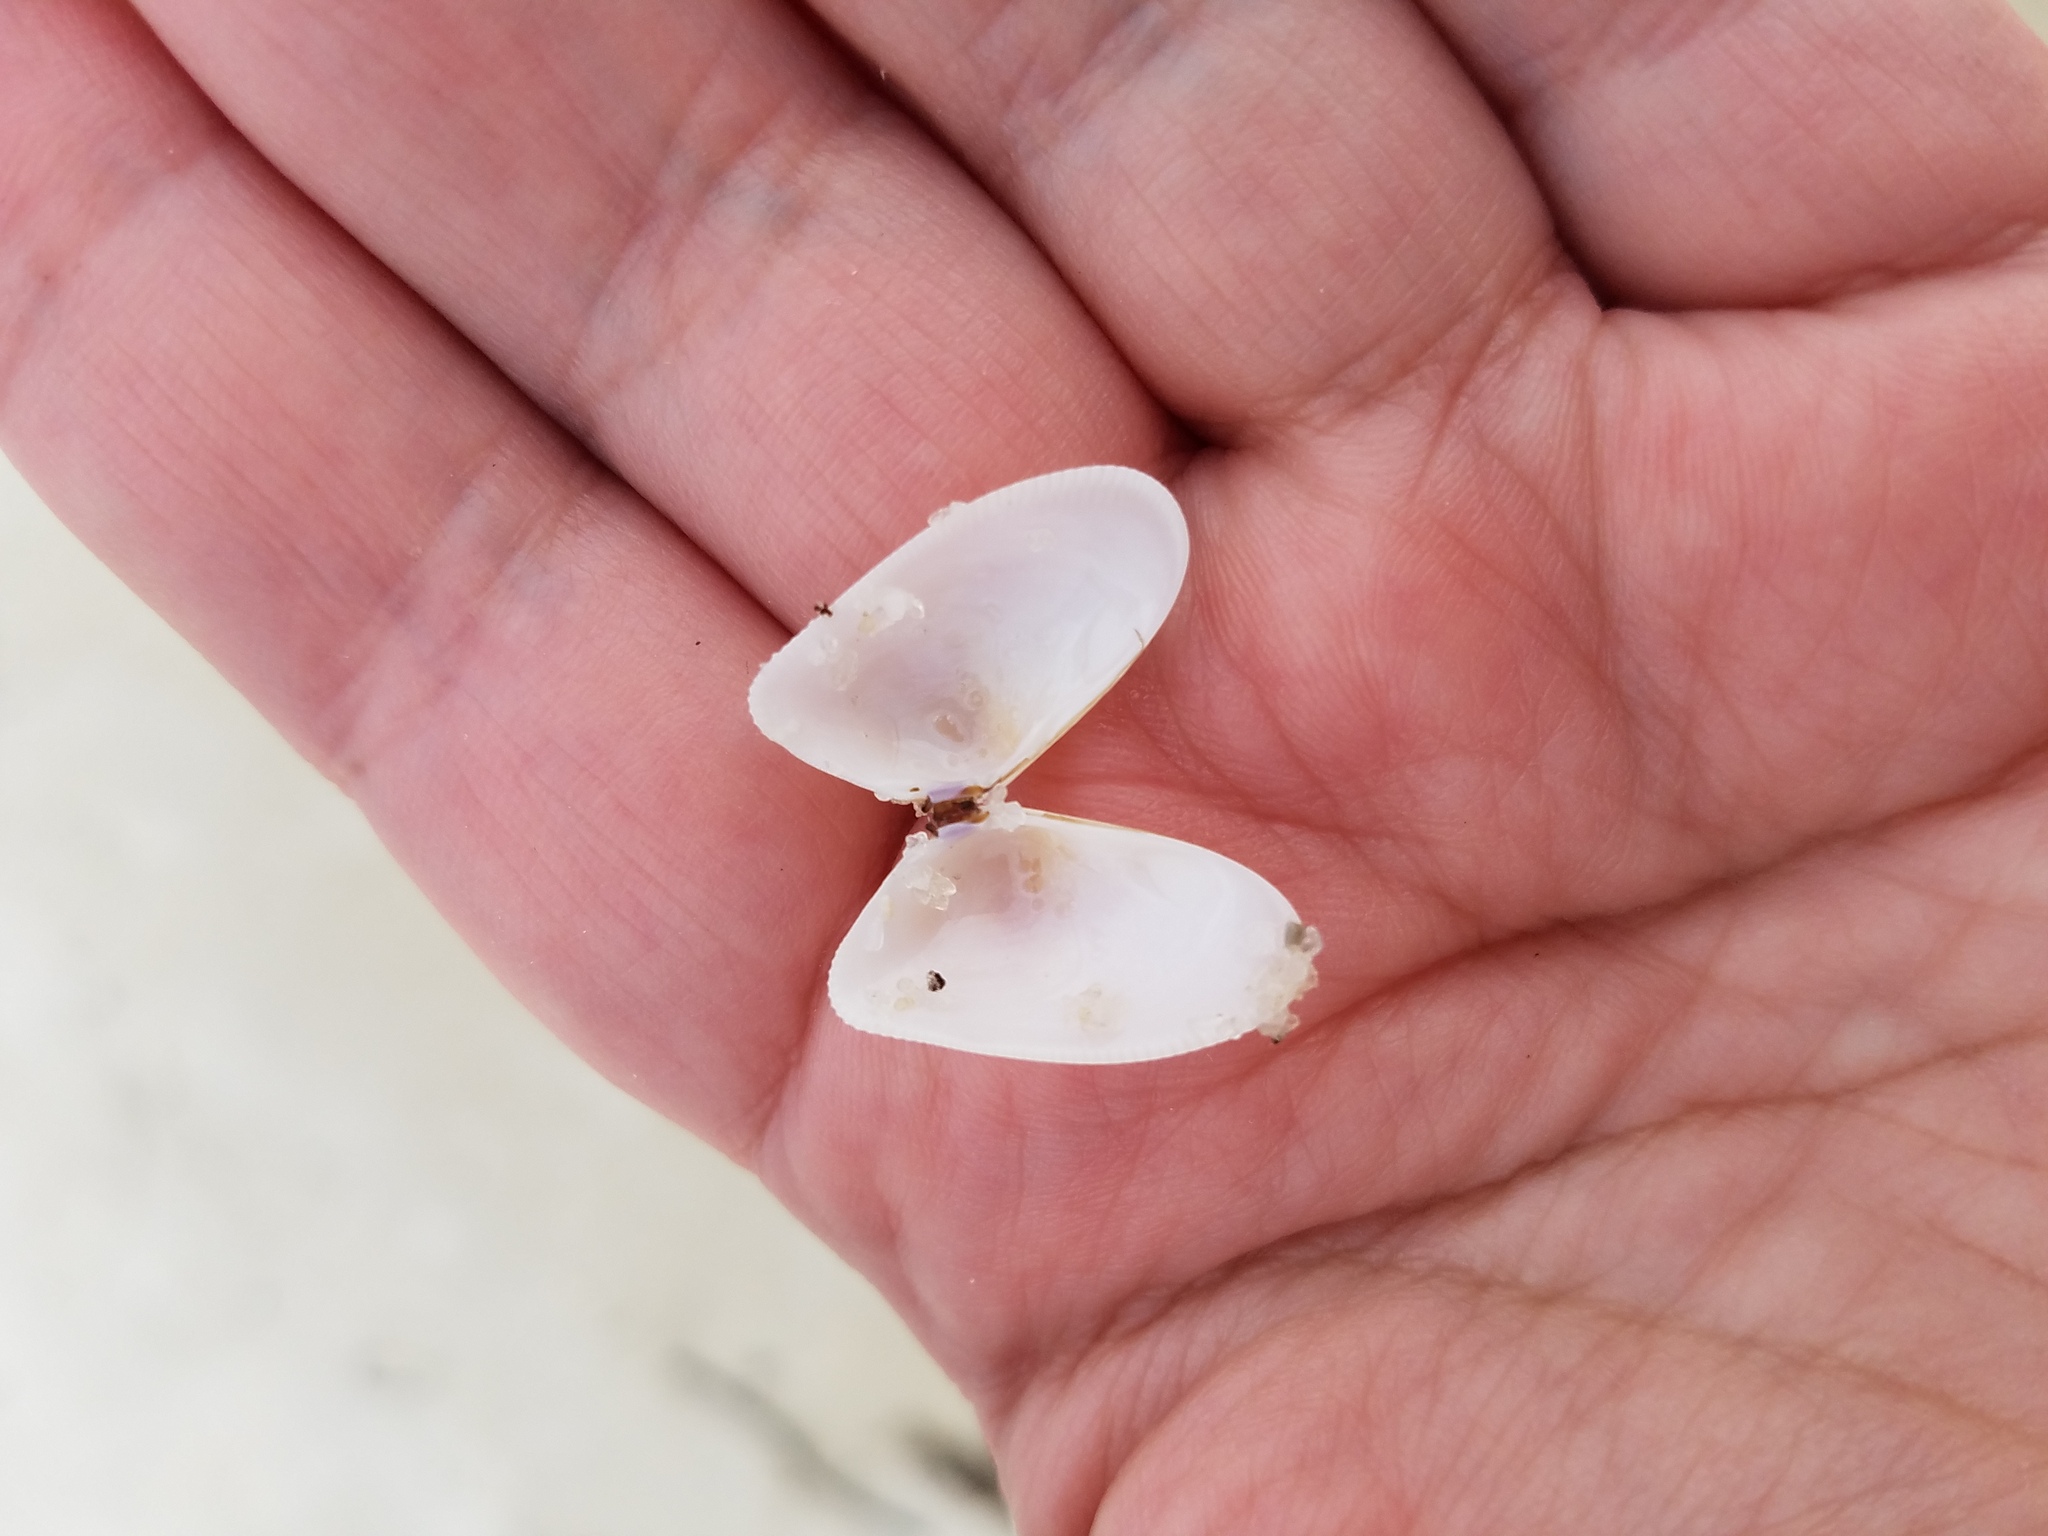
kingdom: Animalia
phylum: Mollusca
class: Bivalvia
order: Cardiida
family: Donacidae
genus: Donax
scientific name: Donax variabilis
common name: Butterfly shell
